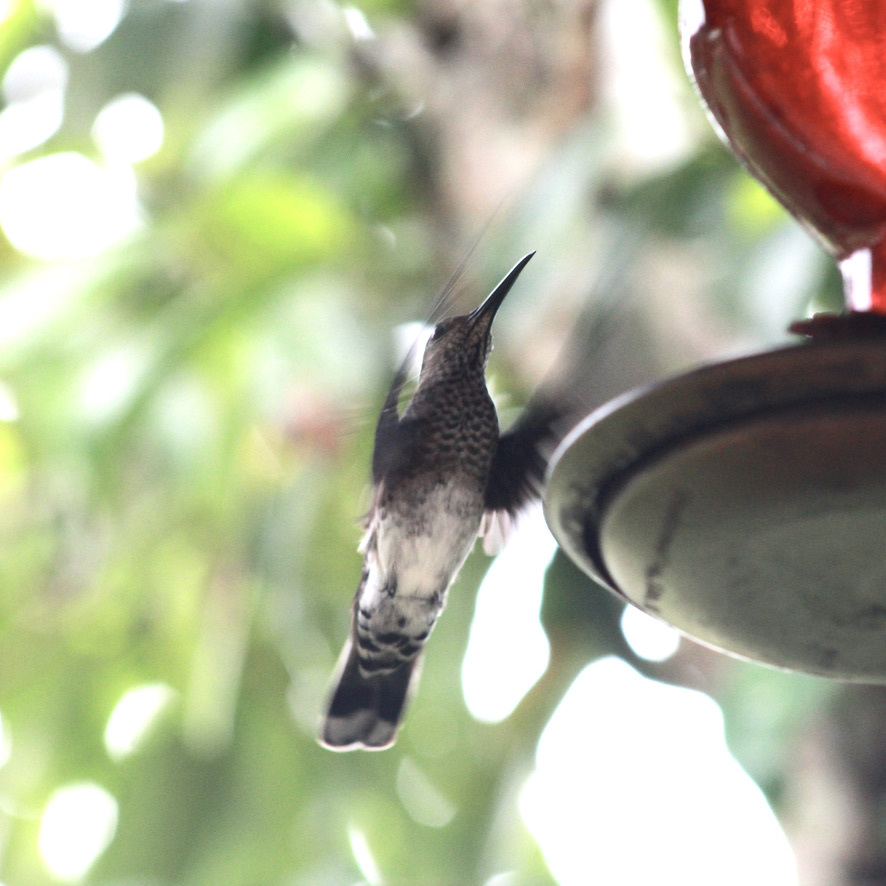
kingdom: Animalia
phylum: Chordata
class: Aves
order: Apodiformes
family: Trochilidae
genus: Florisuga
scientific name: Florisuga mellivora
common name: White-necked jacobin
